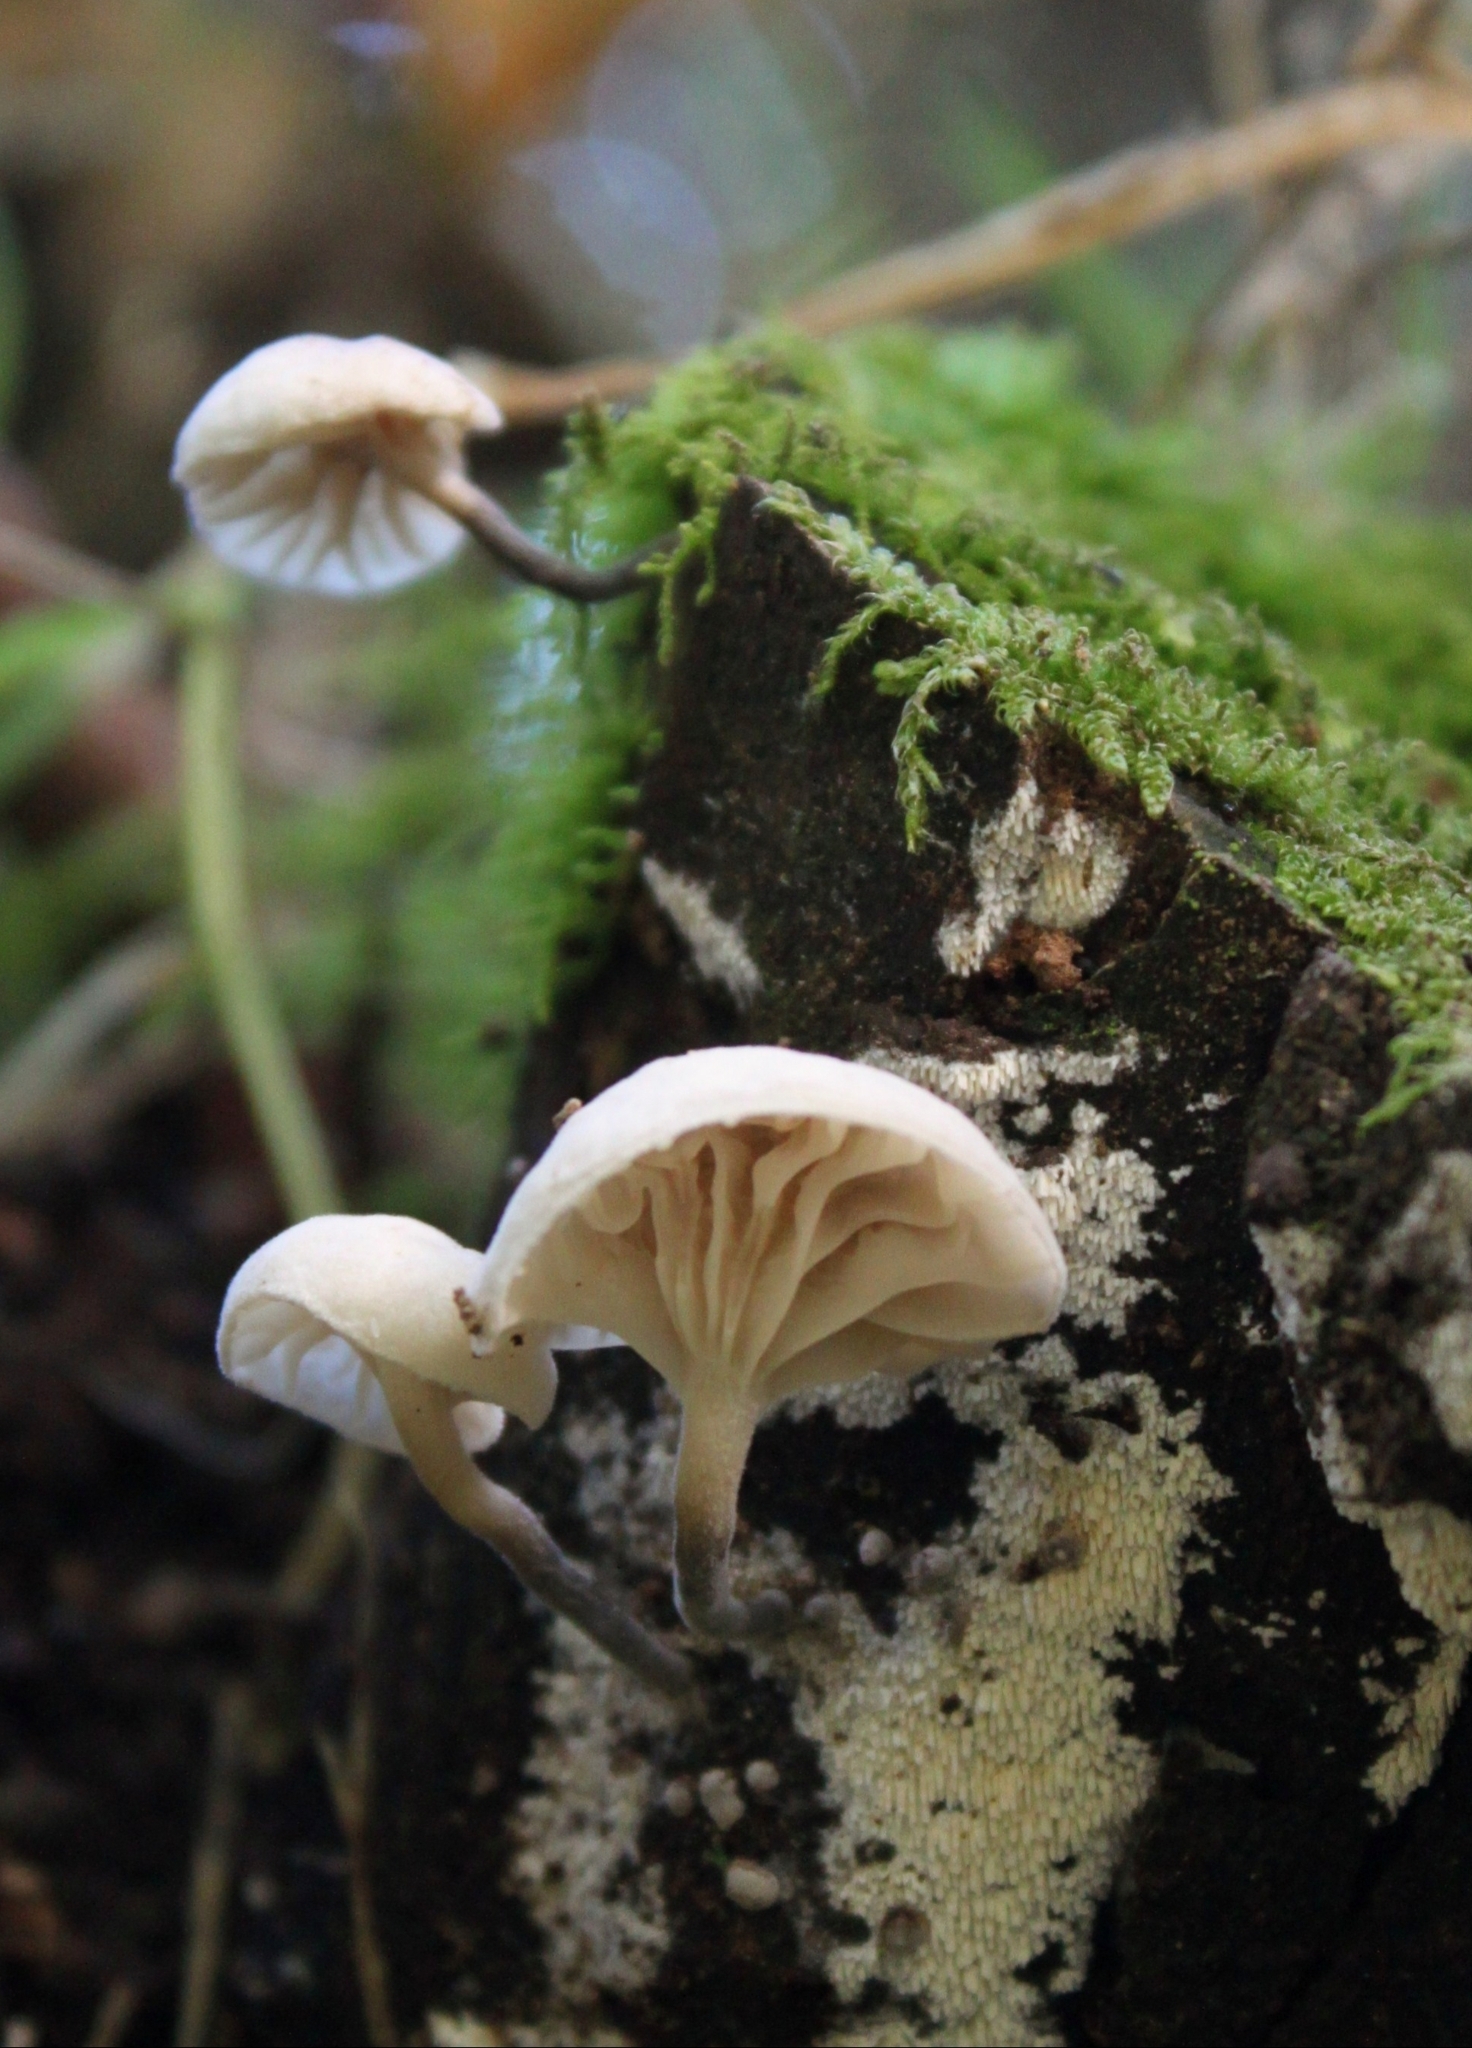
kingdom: Fungi
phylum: Basidiomycota
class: Agaricomycetes
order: Agaricales
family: Omphalotaceae
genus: Marasmiellus
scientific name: Marasmiellus candidus
